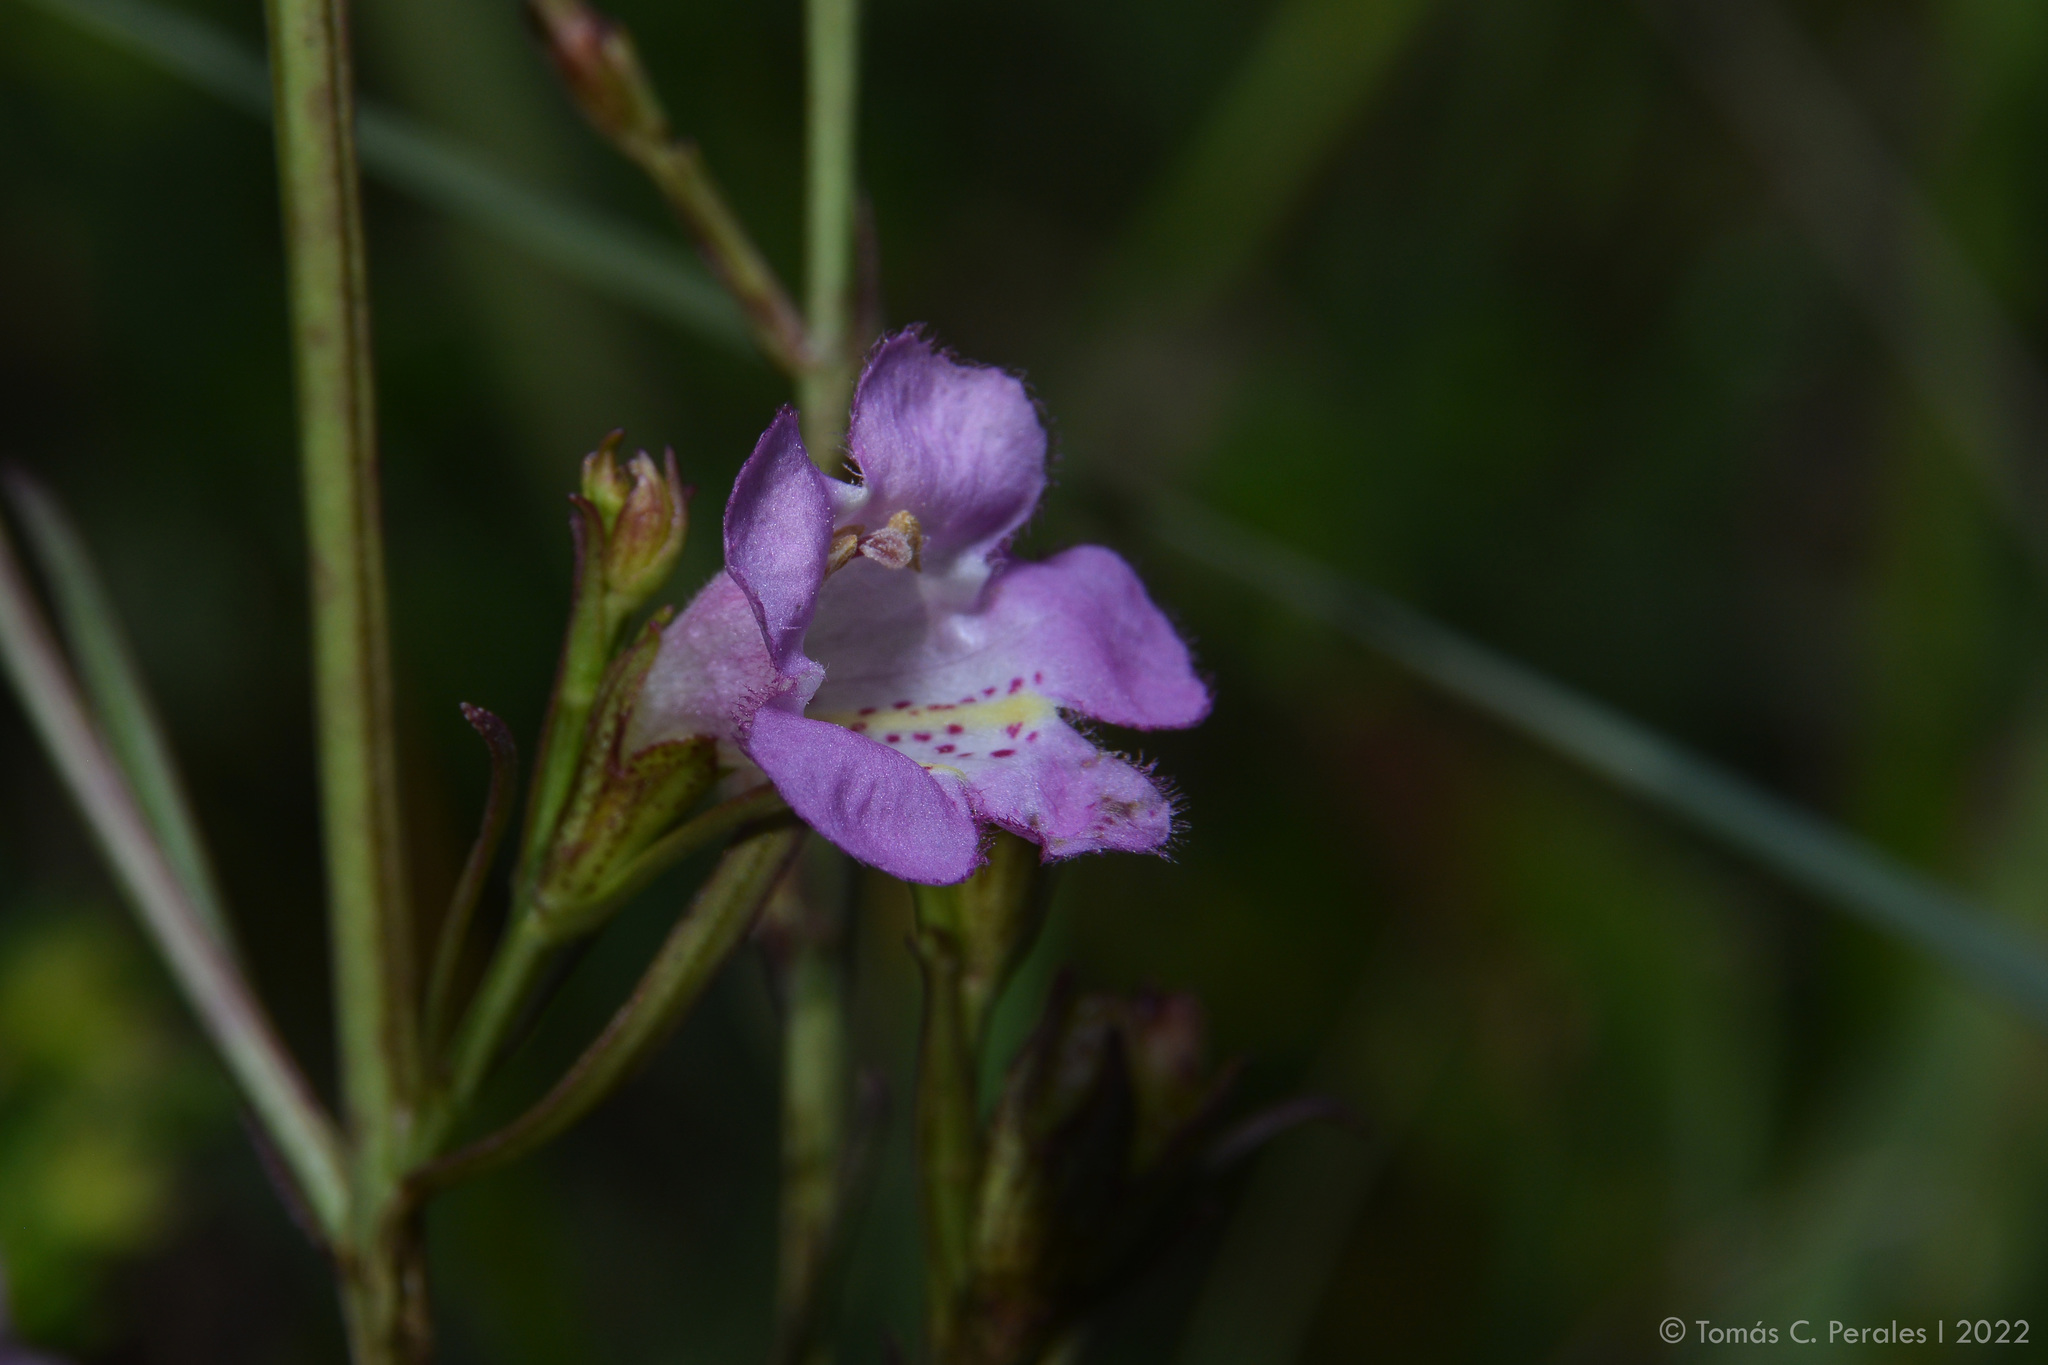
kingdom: Plantae
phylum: Tracheophyta
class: Magnoliopsida
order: Lamiales
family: Orobanchaceae
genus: Agalinis
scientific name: Agalinis communis
